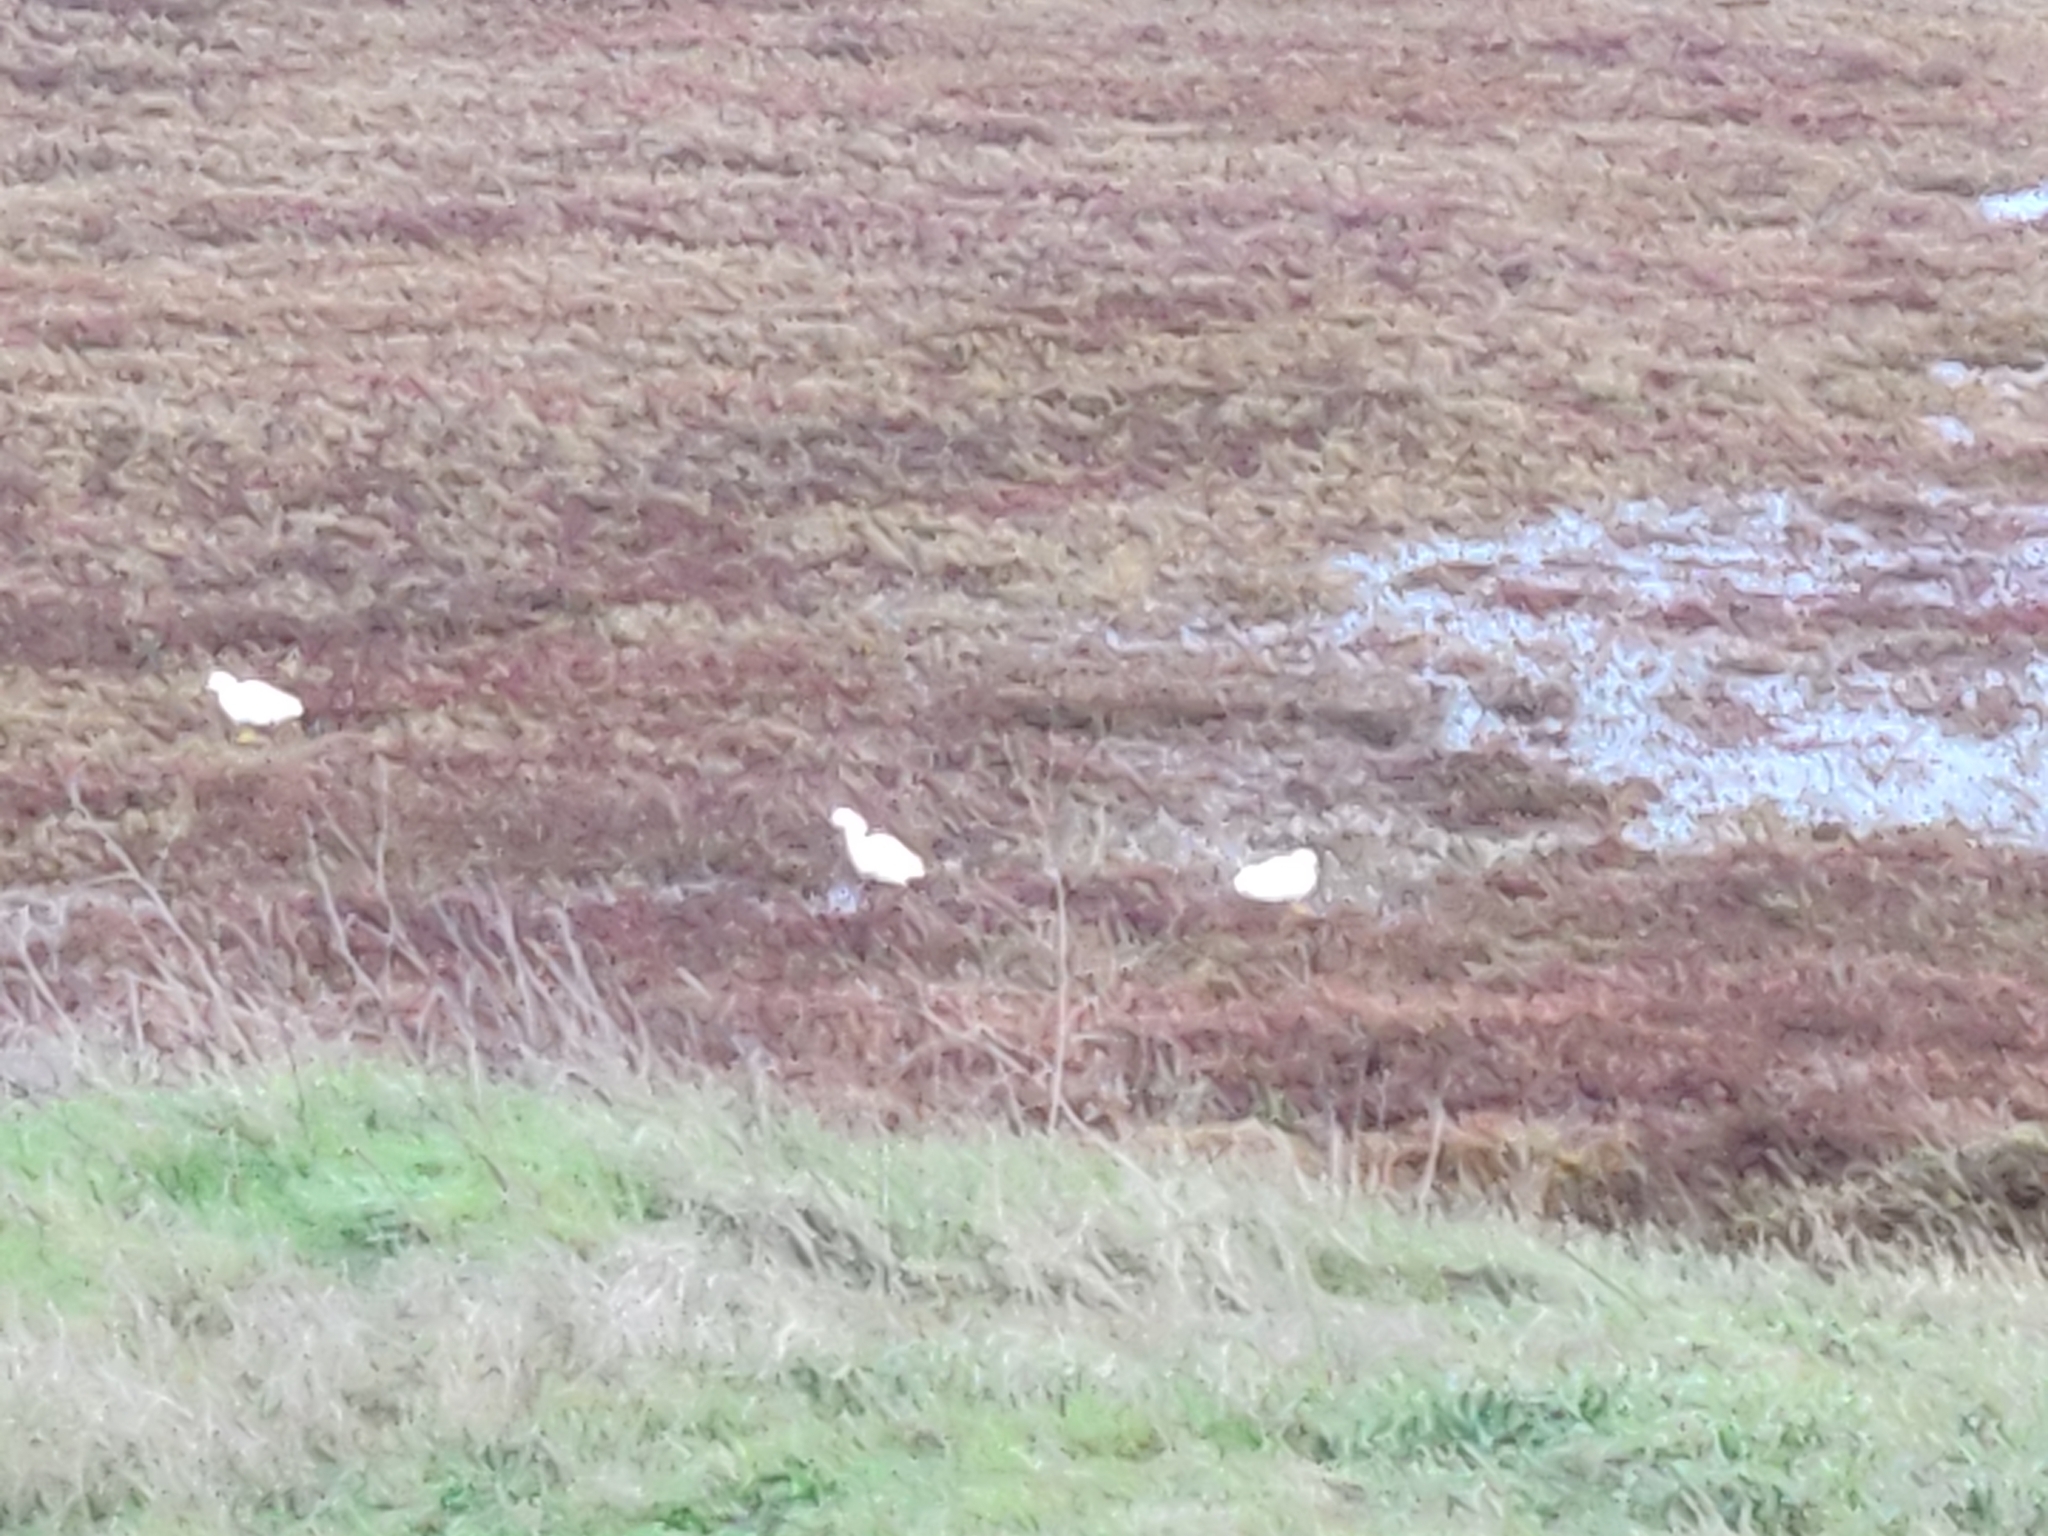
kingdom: Animalia
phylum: Chordata
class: Aves
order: Pelecaniformes
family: Ardeidae
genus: Egretta
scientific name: Egretta thula
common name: Snowy egret
